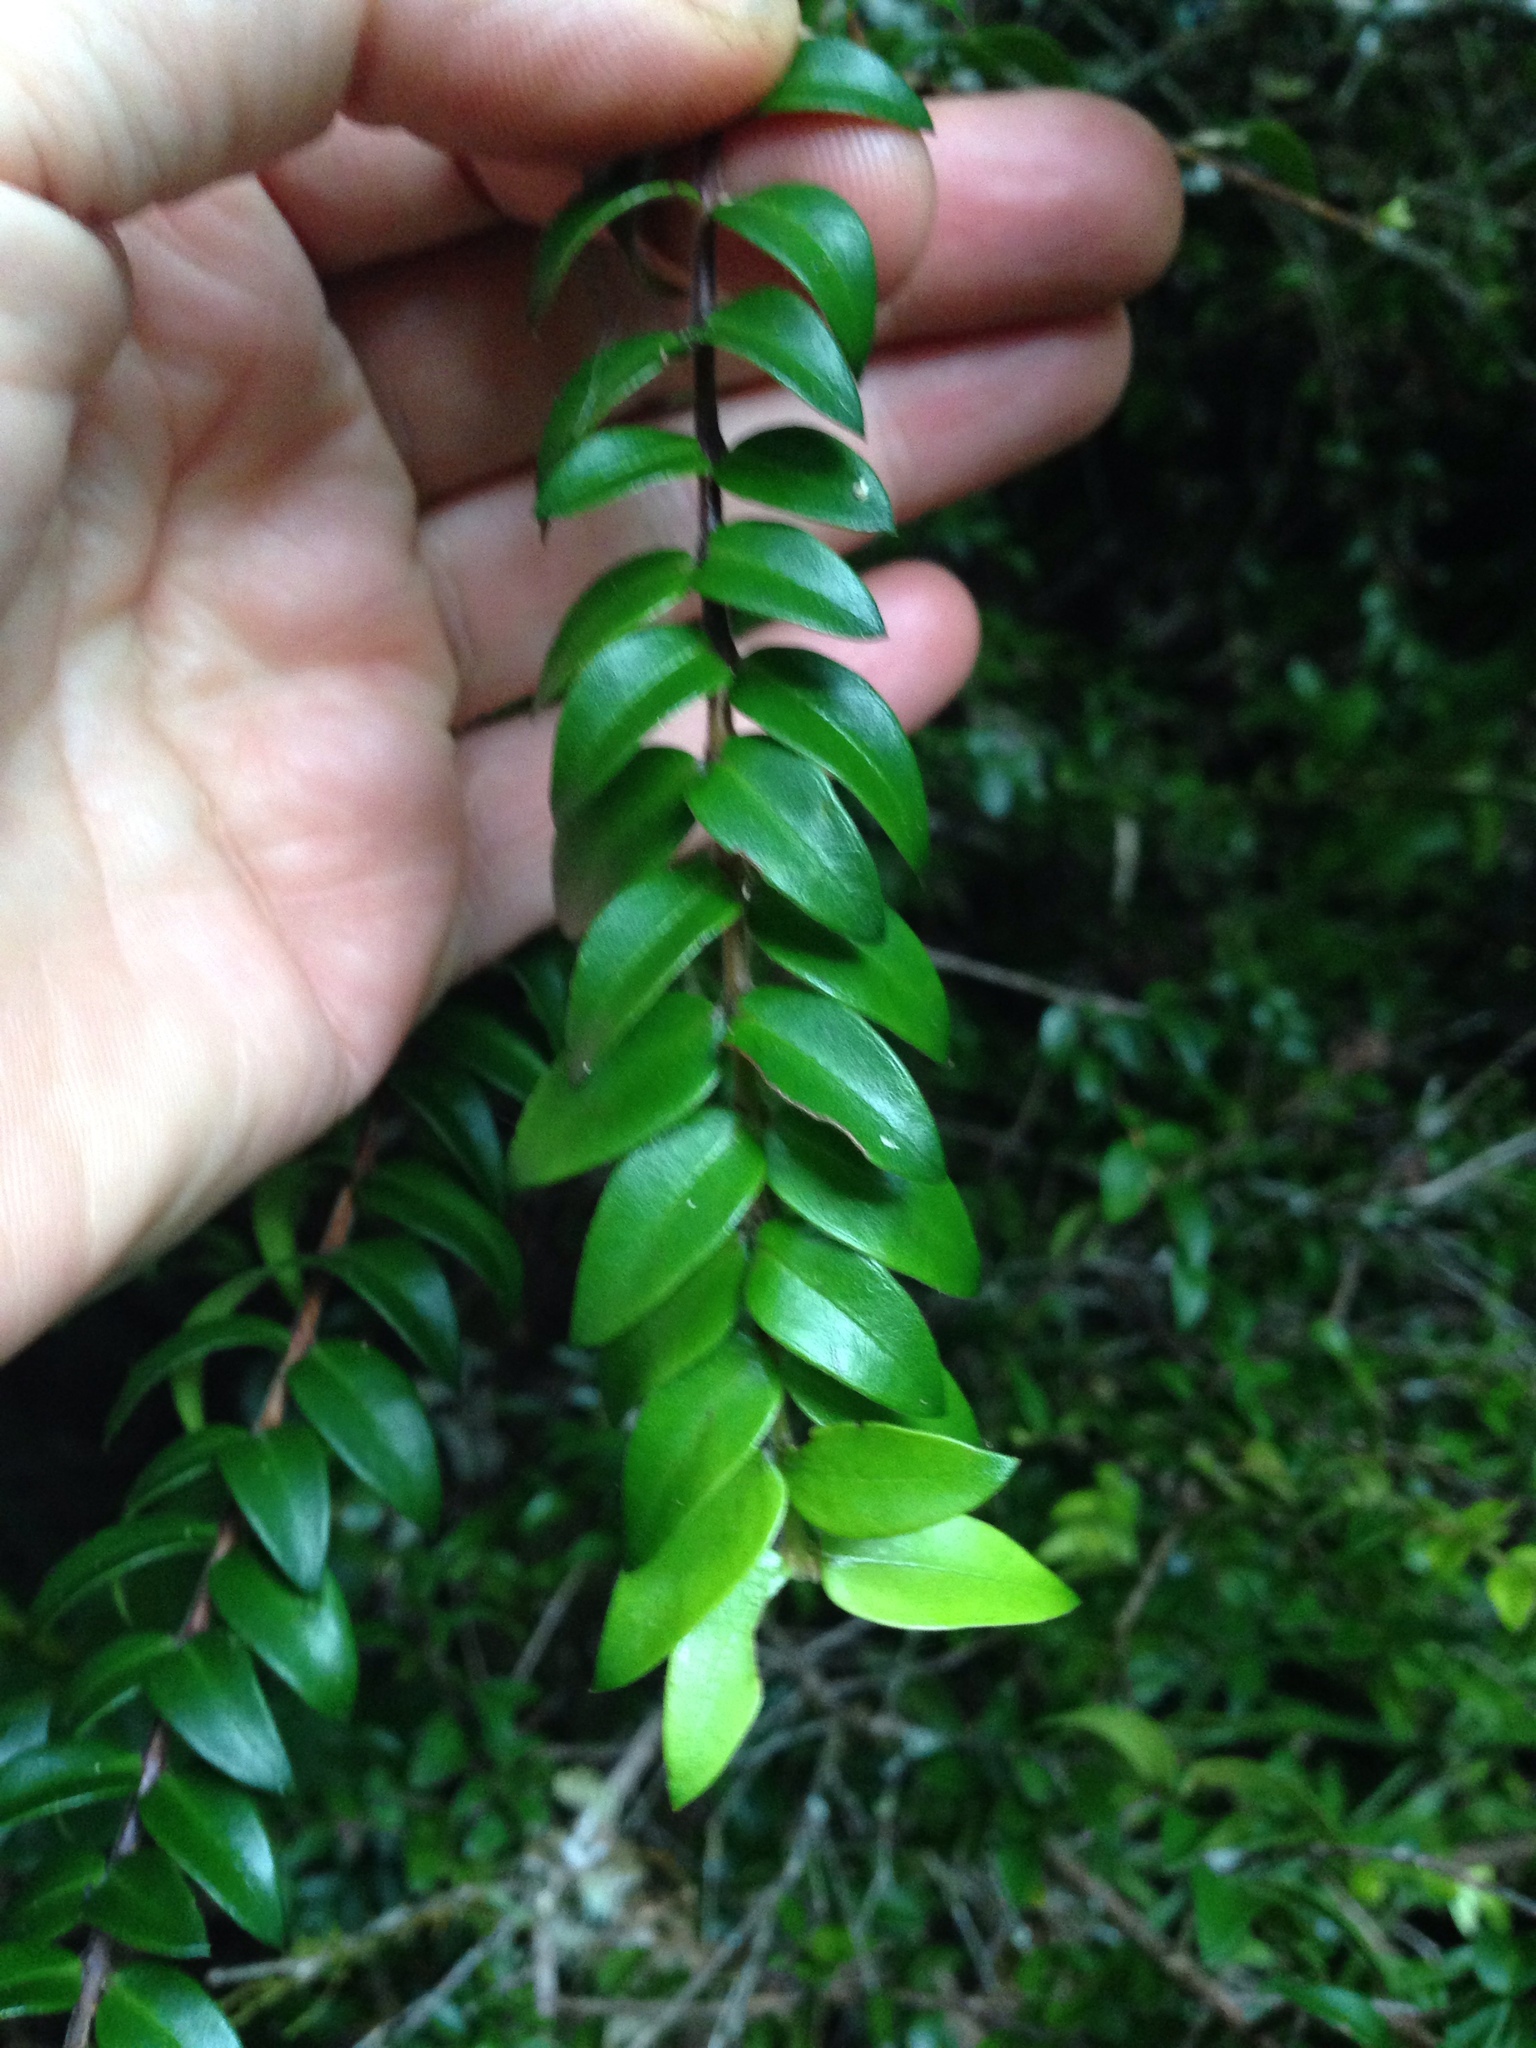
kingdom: Plantae
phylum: Tracheophyta
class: Magnoliopsida
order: Myrtales
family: Myrtaceae
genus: Metrosideros
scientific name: Metrosideros diffusa
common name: Small ratavine
